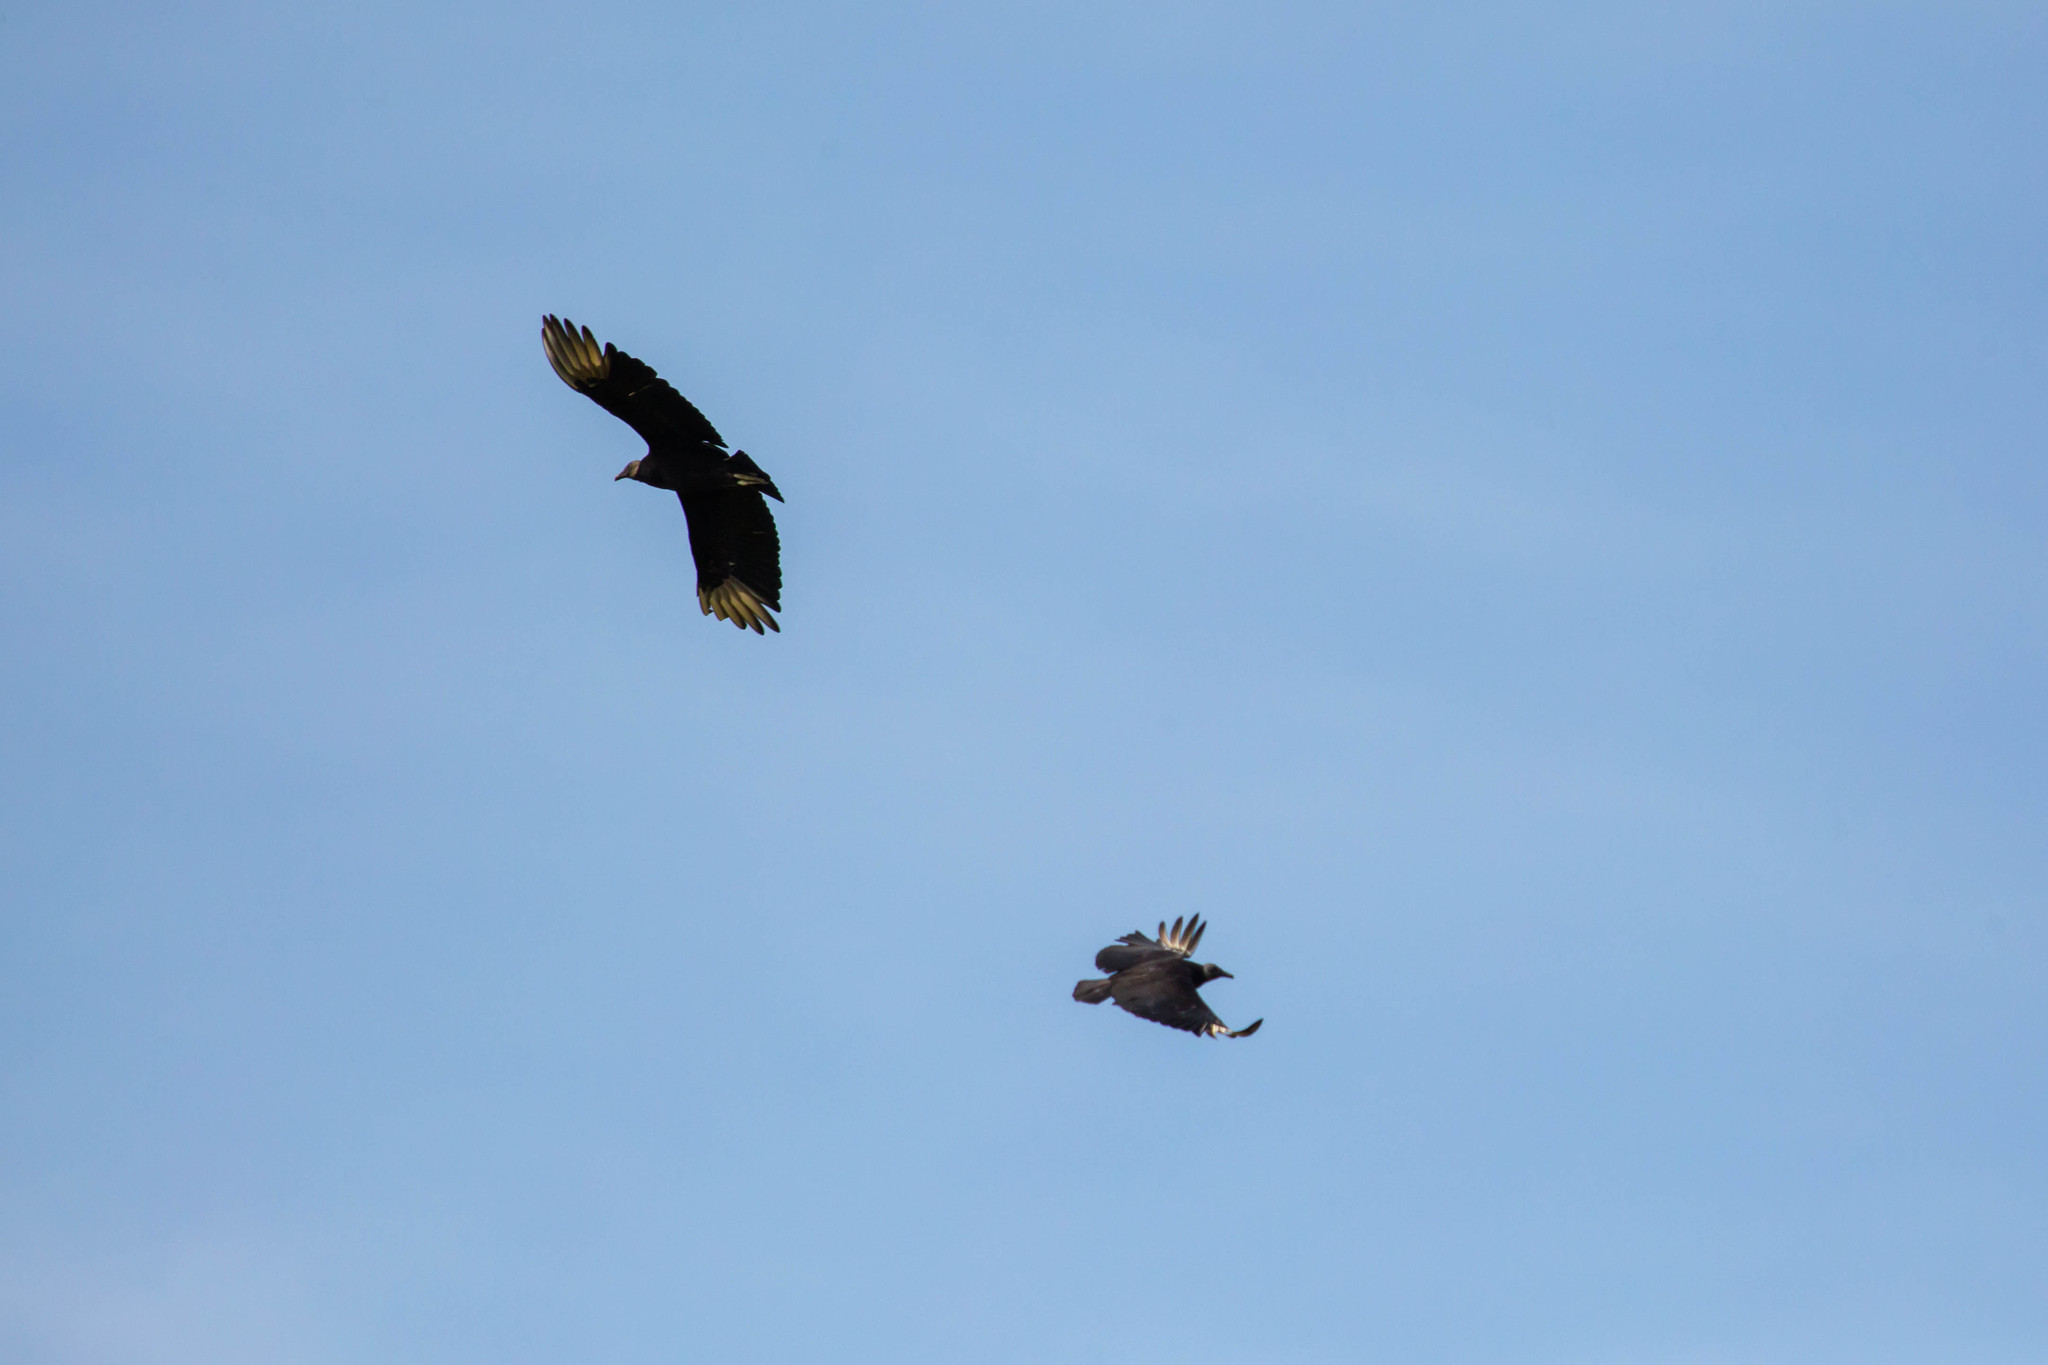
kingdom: Animalia
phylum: Chordata
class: Aves
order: Accipitriformes
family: Cathartidae
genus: Coragyps
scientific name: Coragyps atratus
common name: Black vulture
